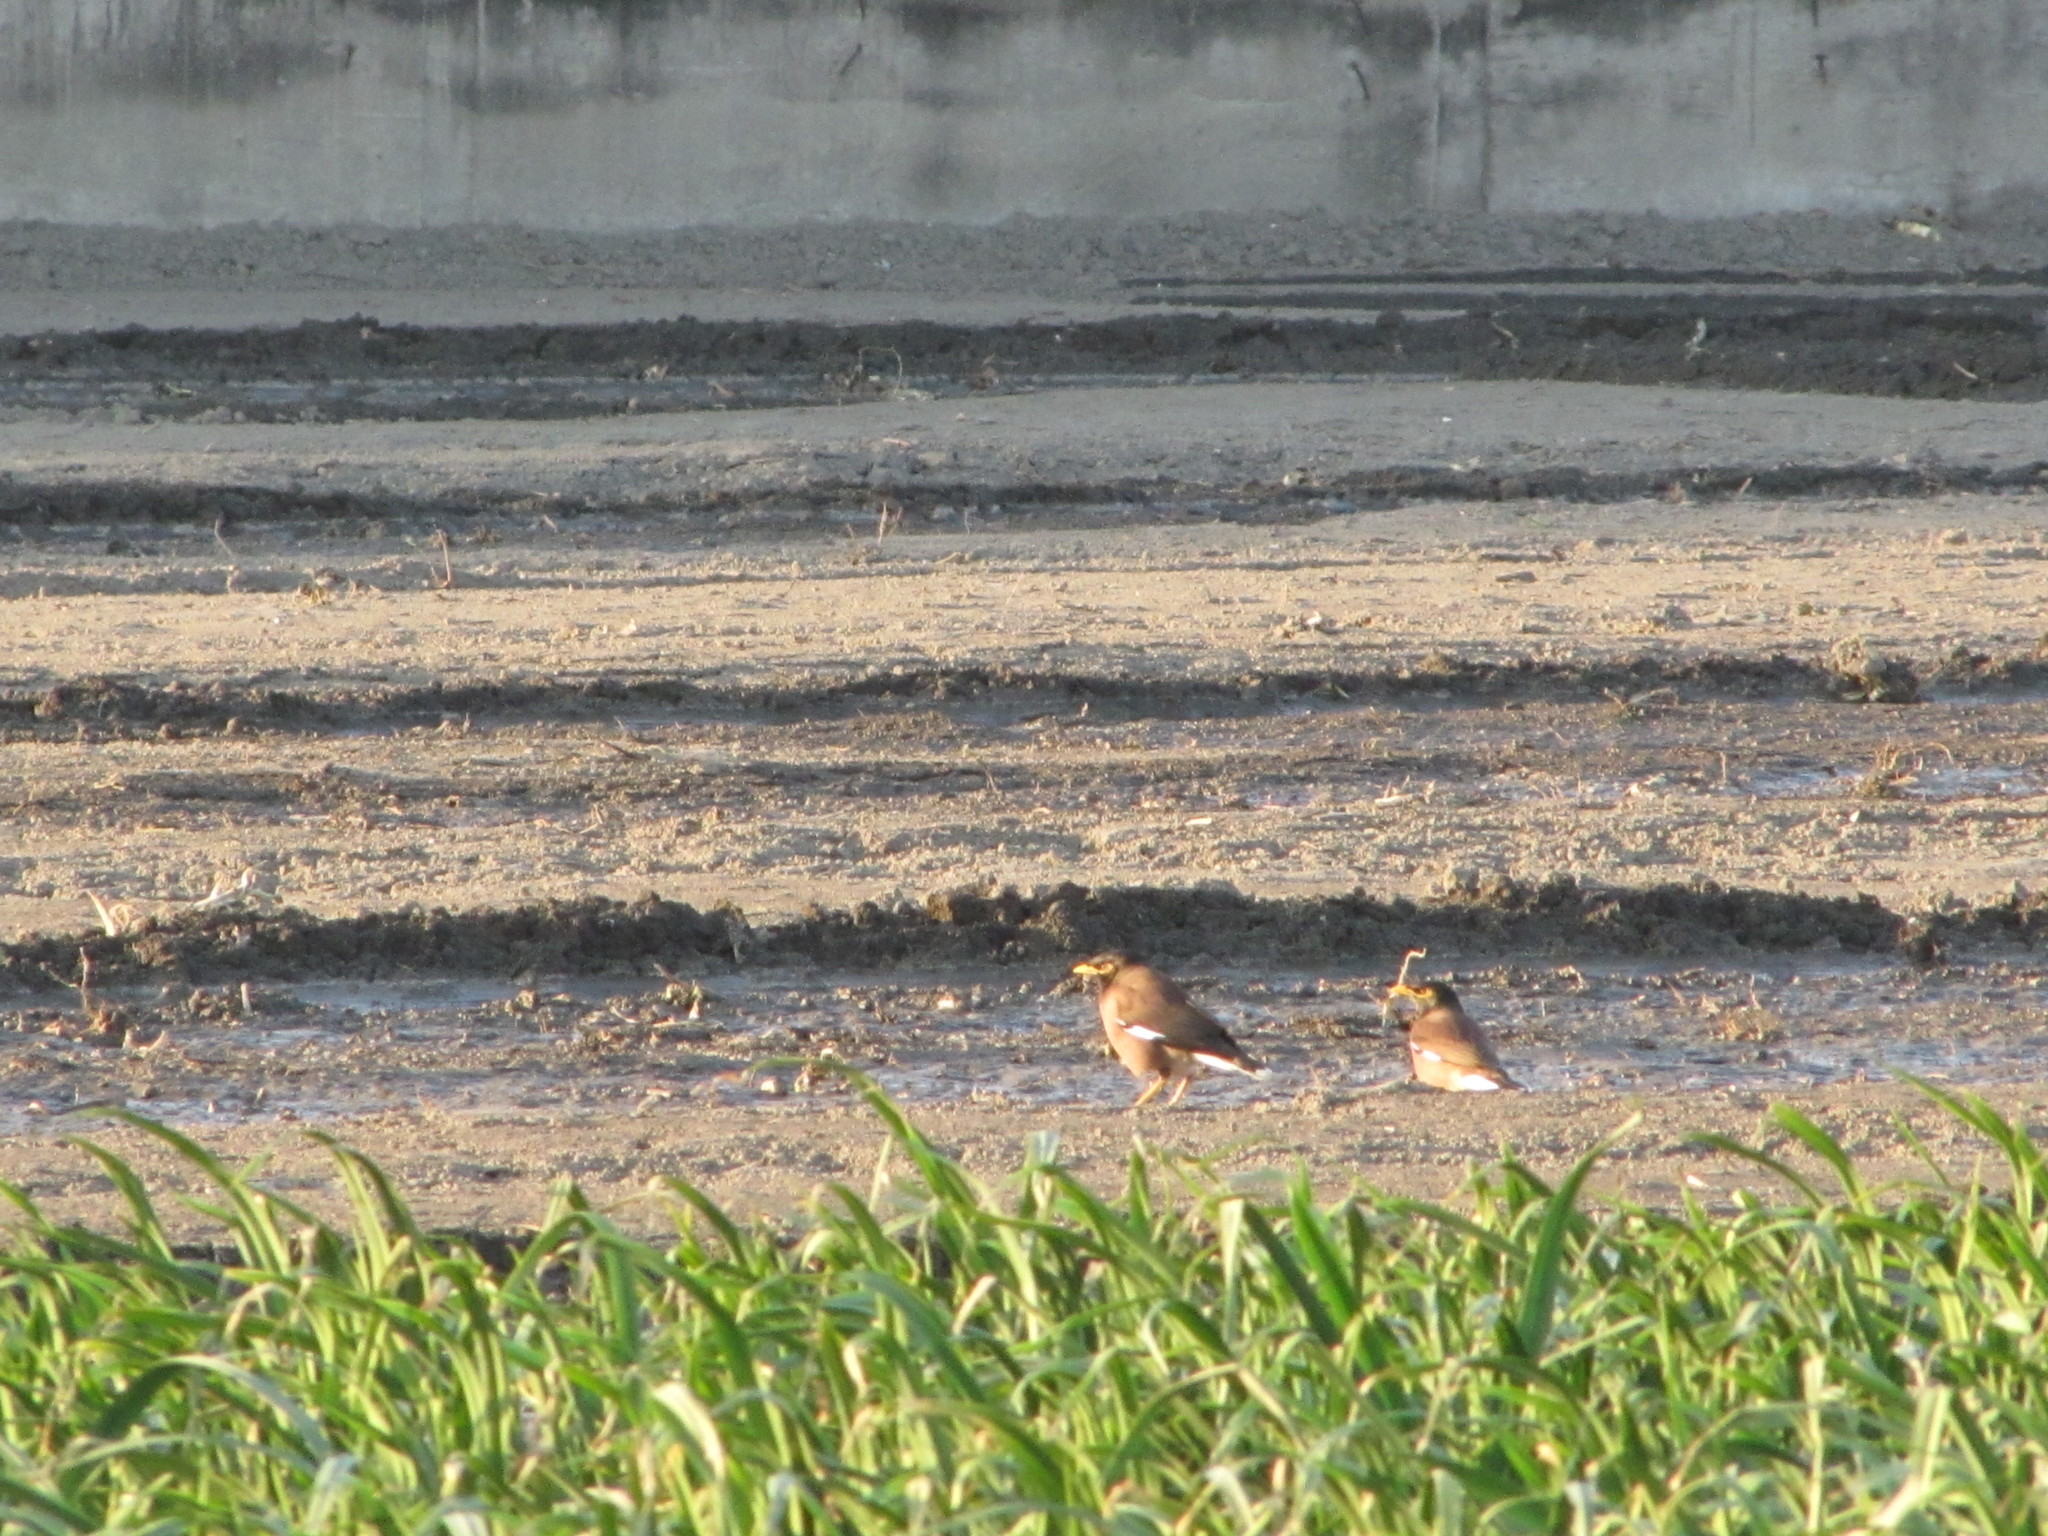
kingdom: Animalia
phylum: Chordata
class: Aves
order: Passeriformes
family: Sturnidae
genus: Acridotheres
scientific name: Acridotheres tristis
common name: Common myna
